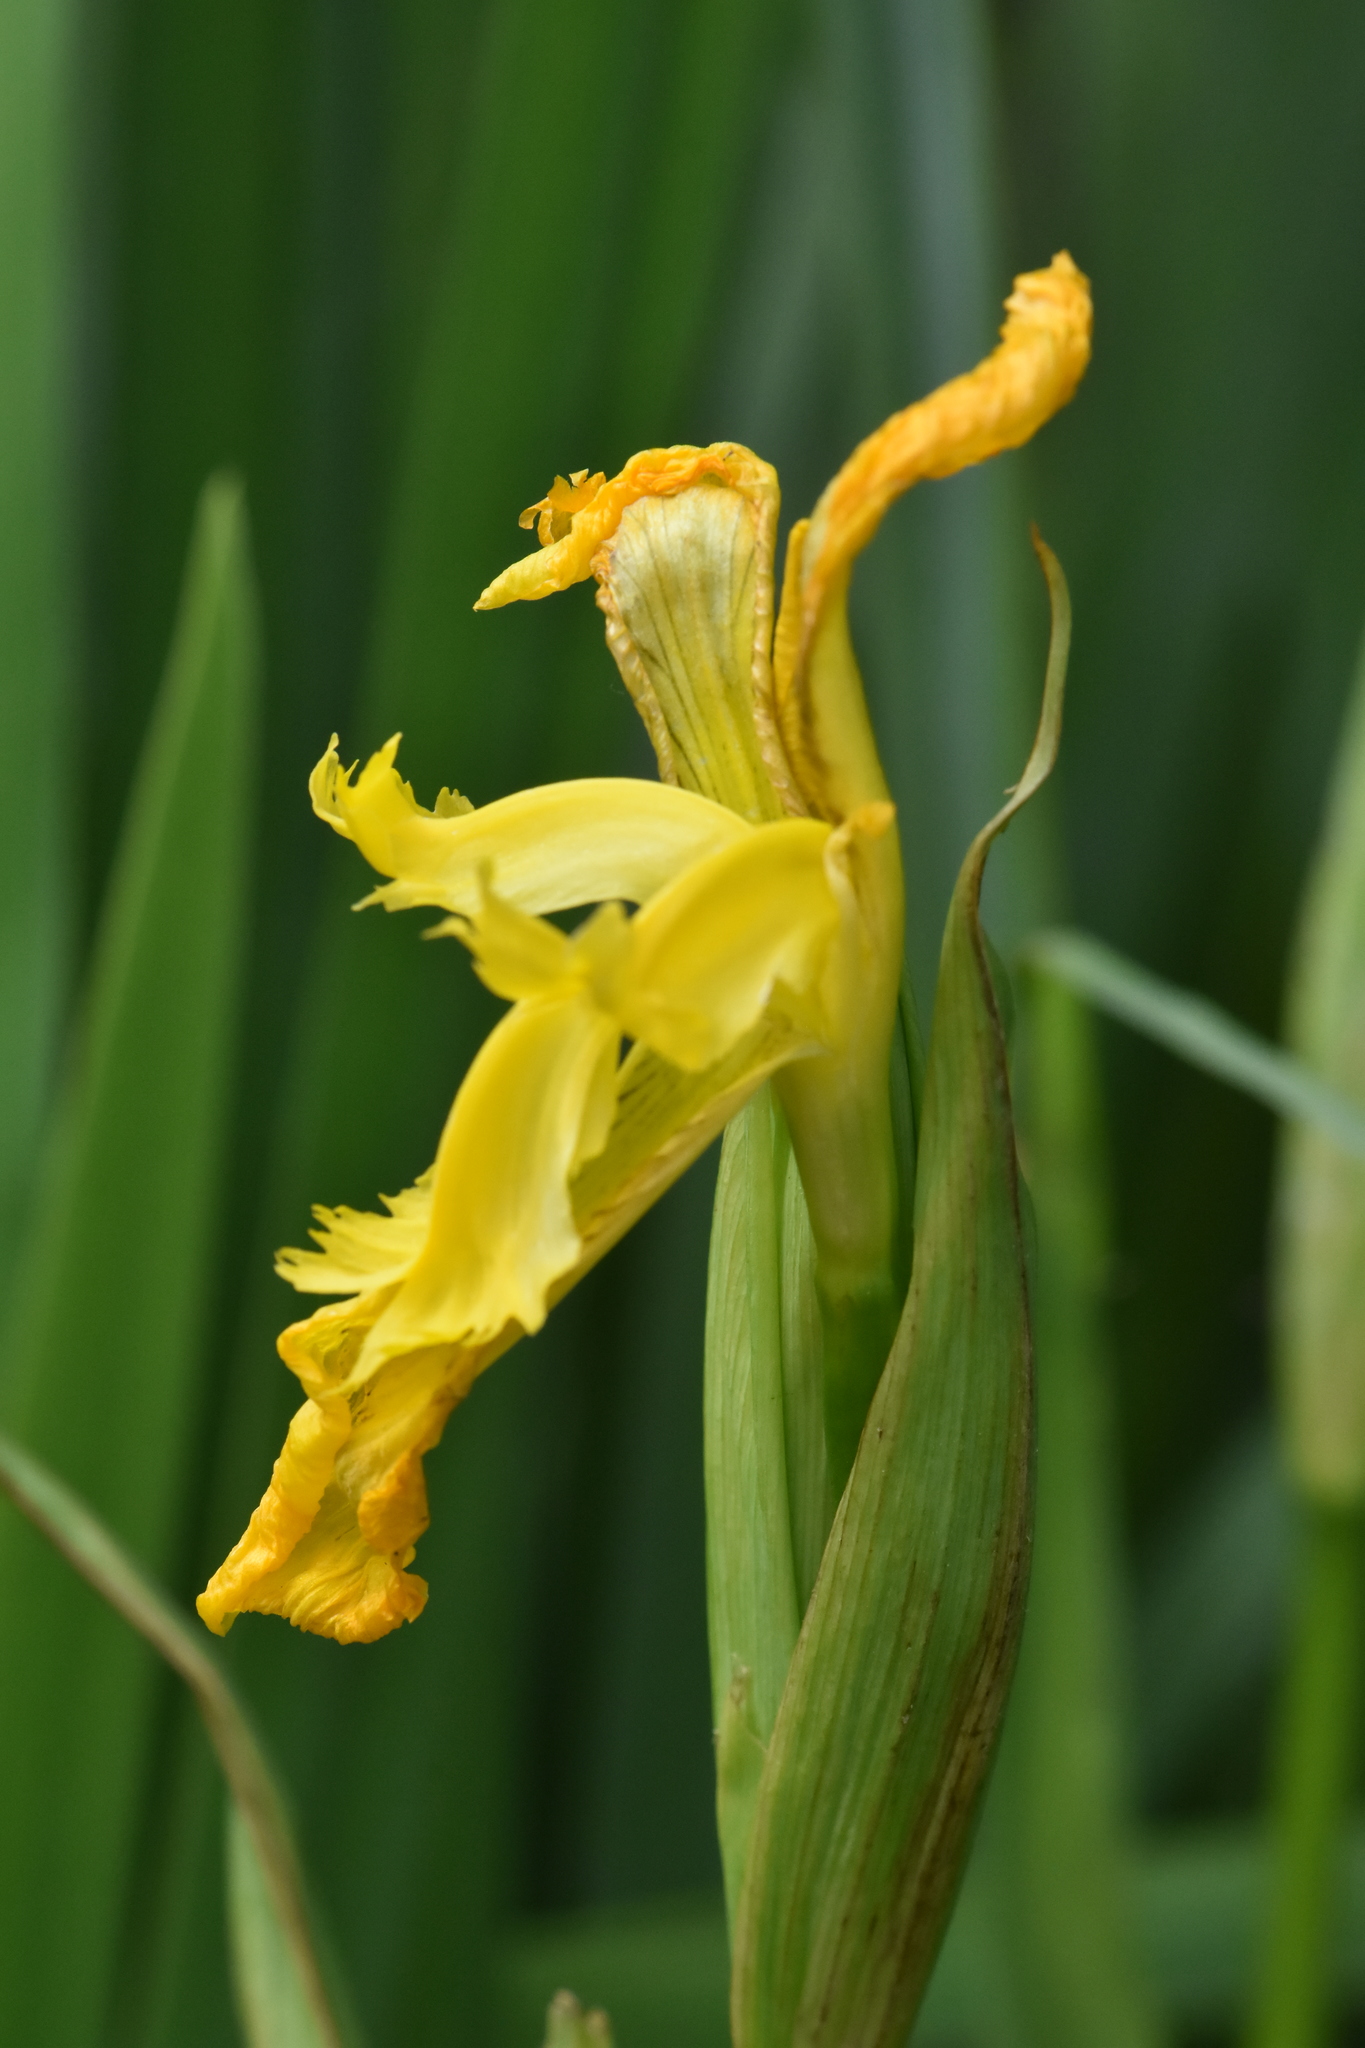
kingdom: Plantae
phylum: Tracheophyta
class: Liliopsida
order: Asparagales
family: Iridaceae
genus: Iris
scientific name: Iris pseudacorus
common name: Yellow flag
